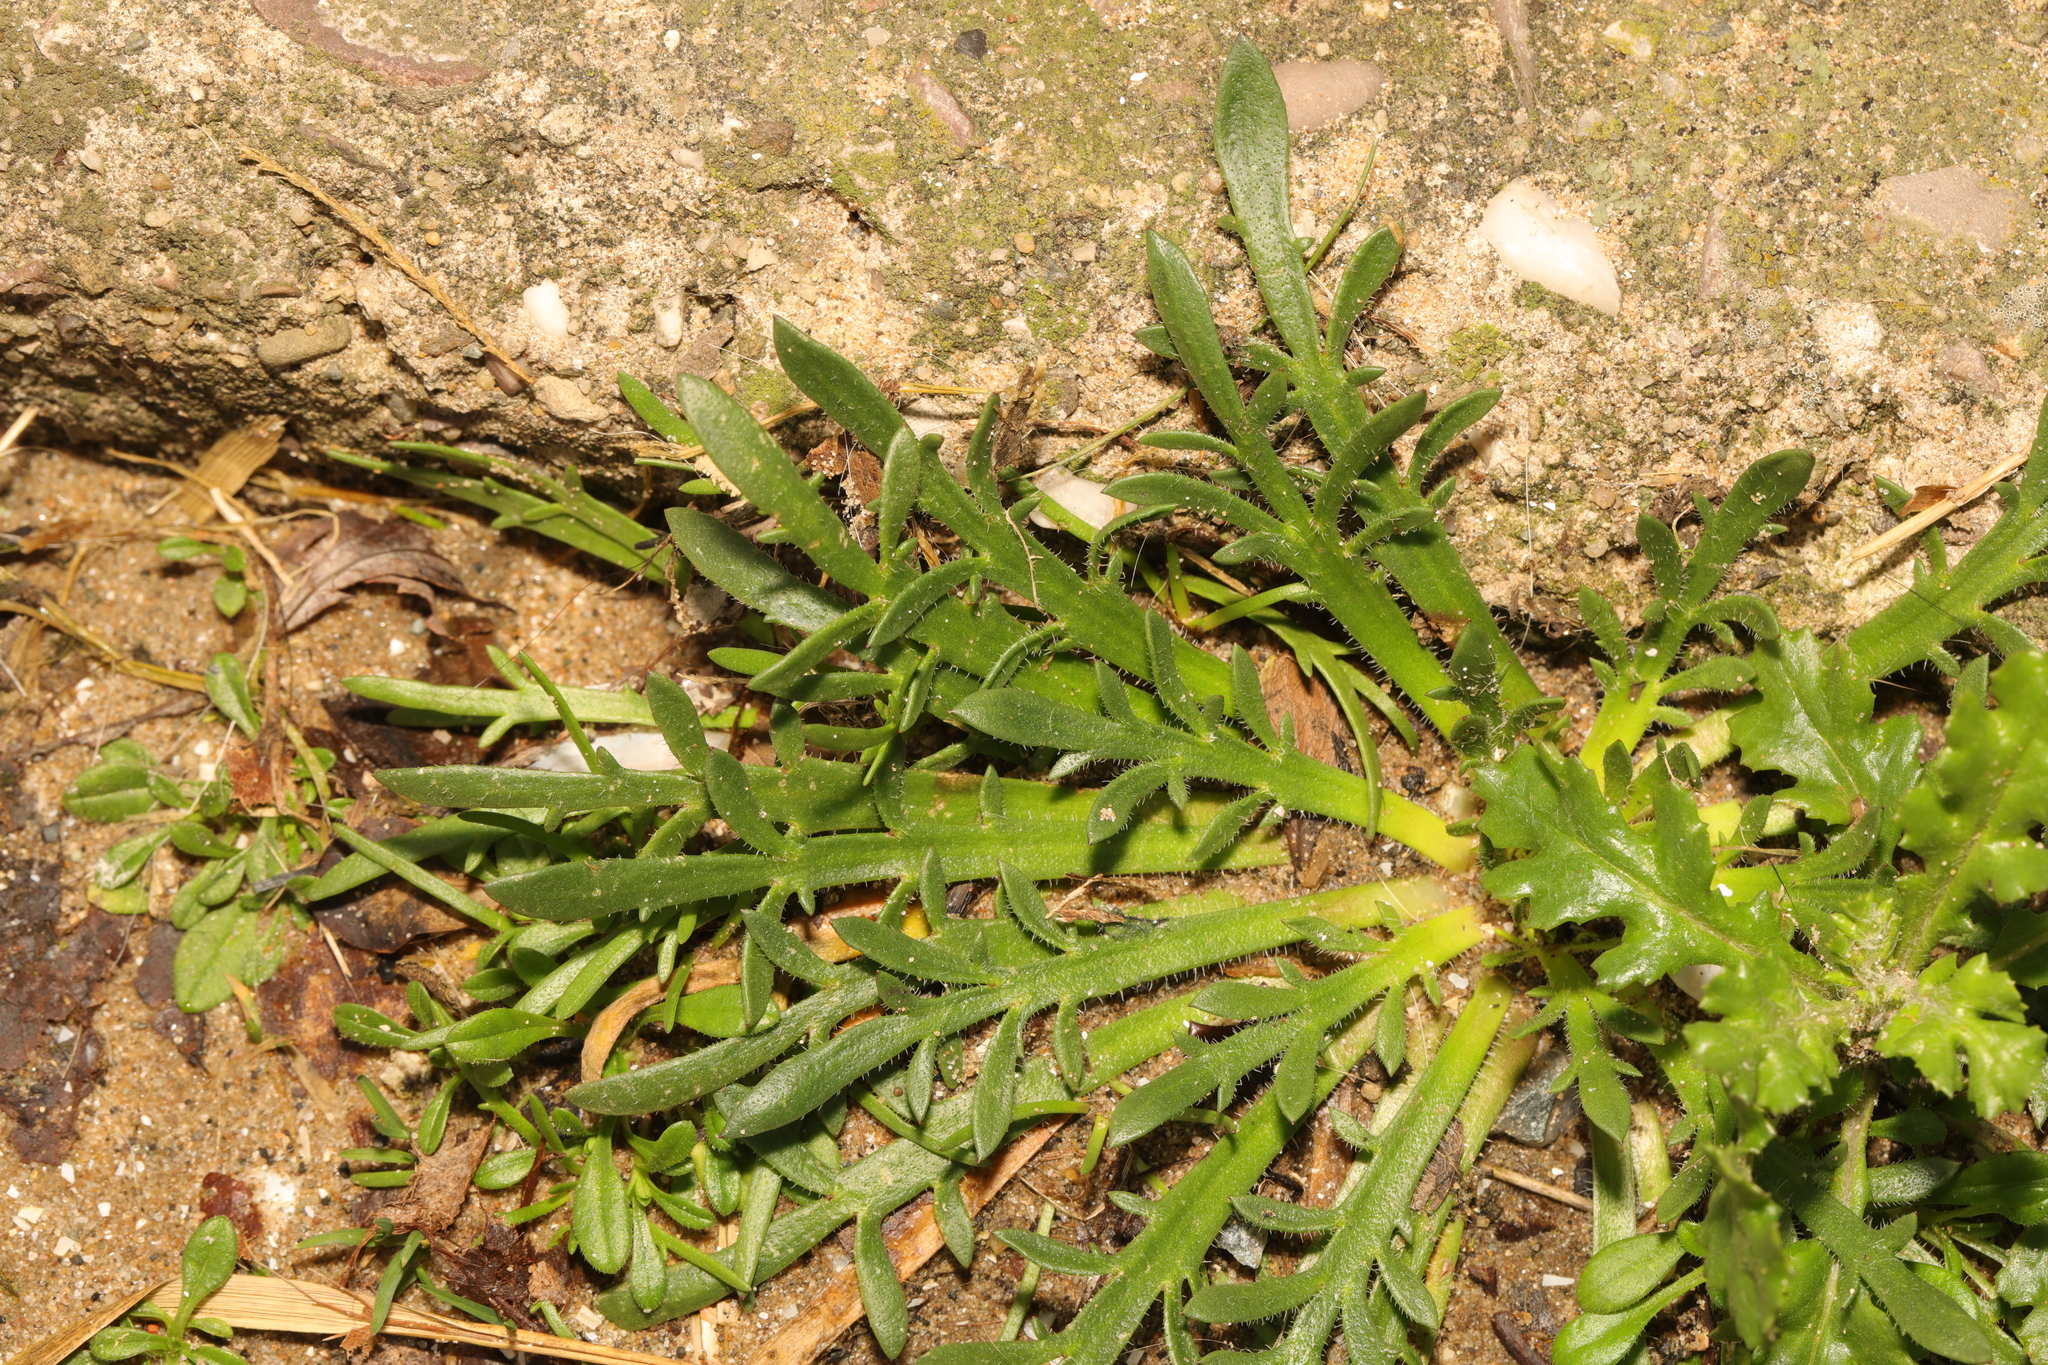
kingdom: Plantae
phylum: Tracheophyta
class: Magnoliopsida
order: Lamiales
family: Plantaginaceae
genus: Plantago
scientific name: Plantago coronopus
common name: Buck's-horn plantain
